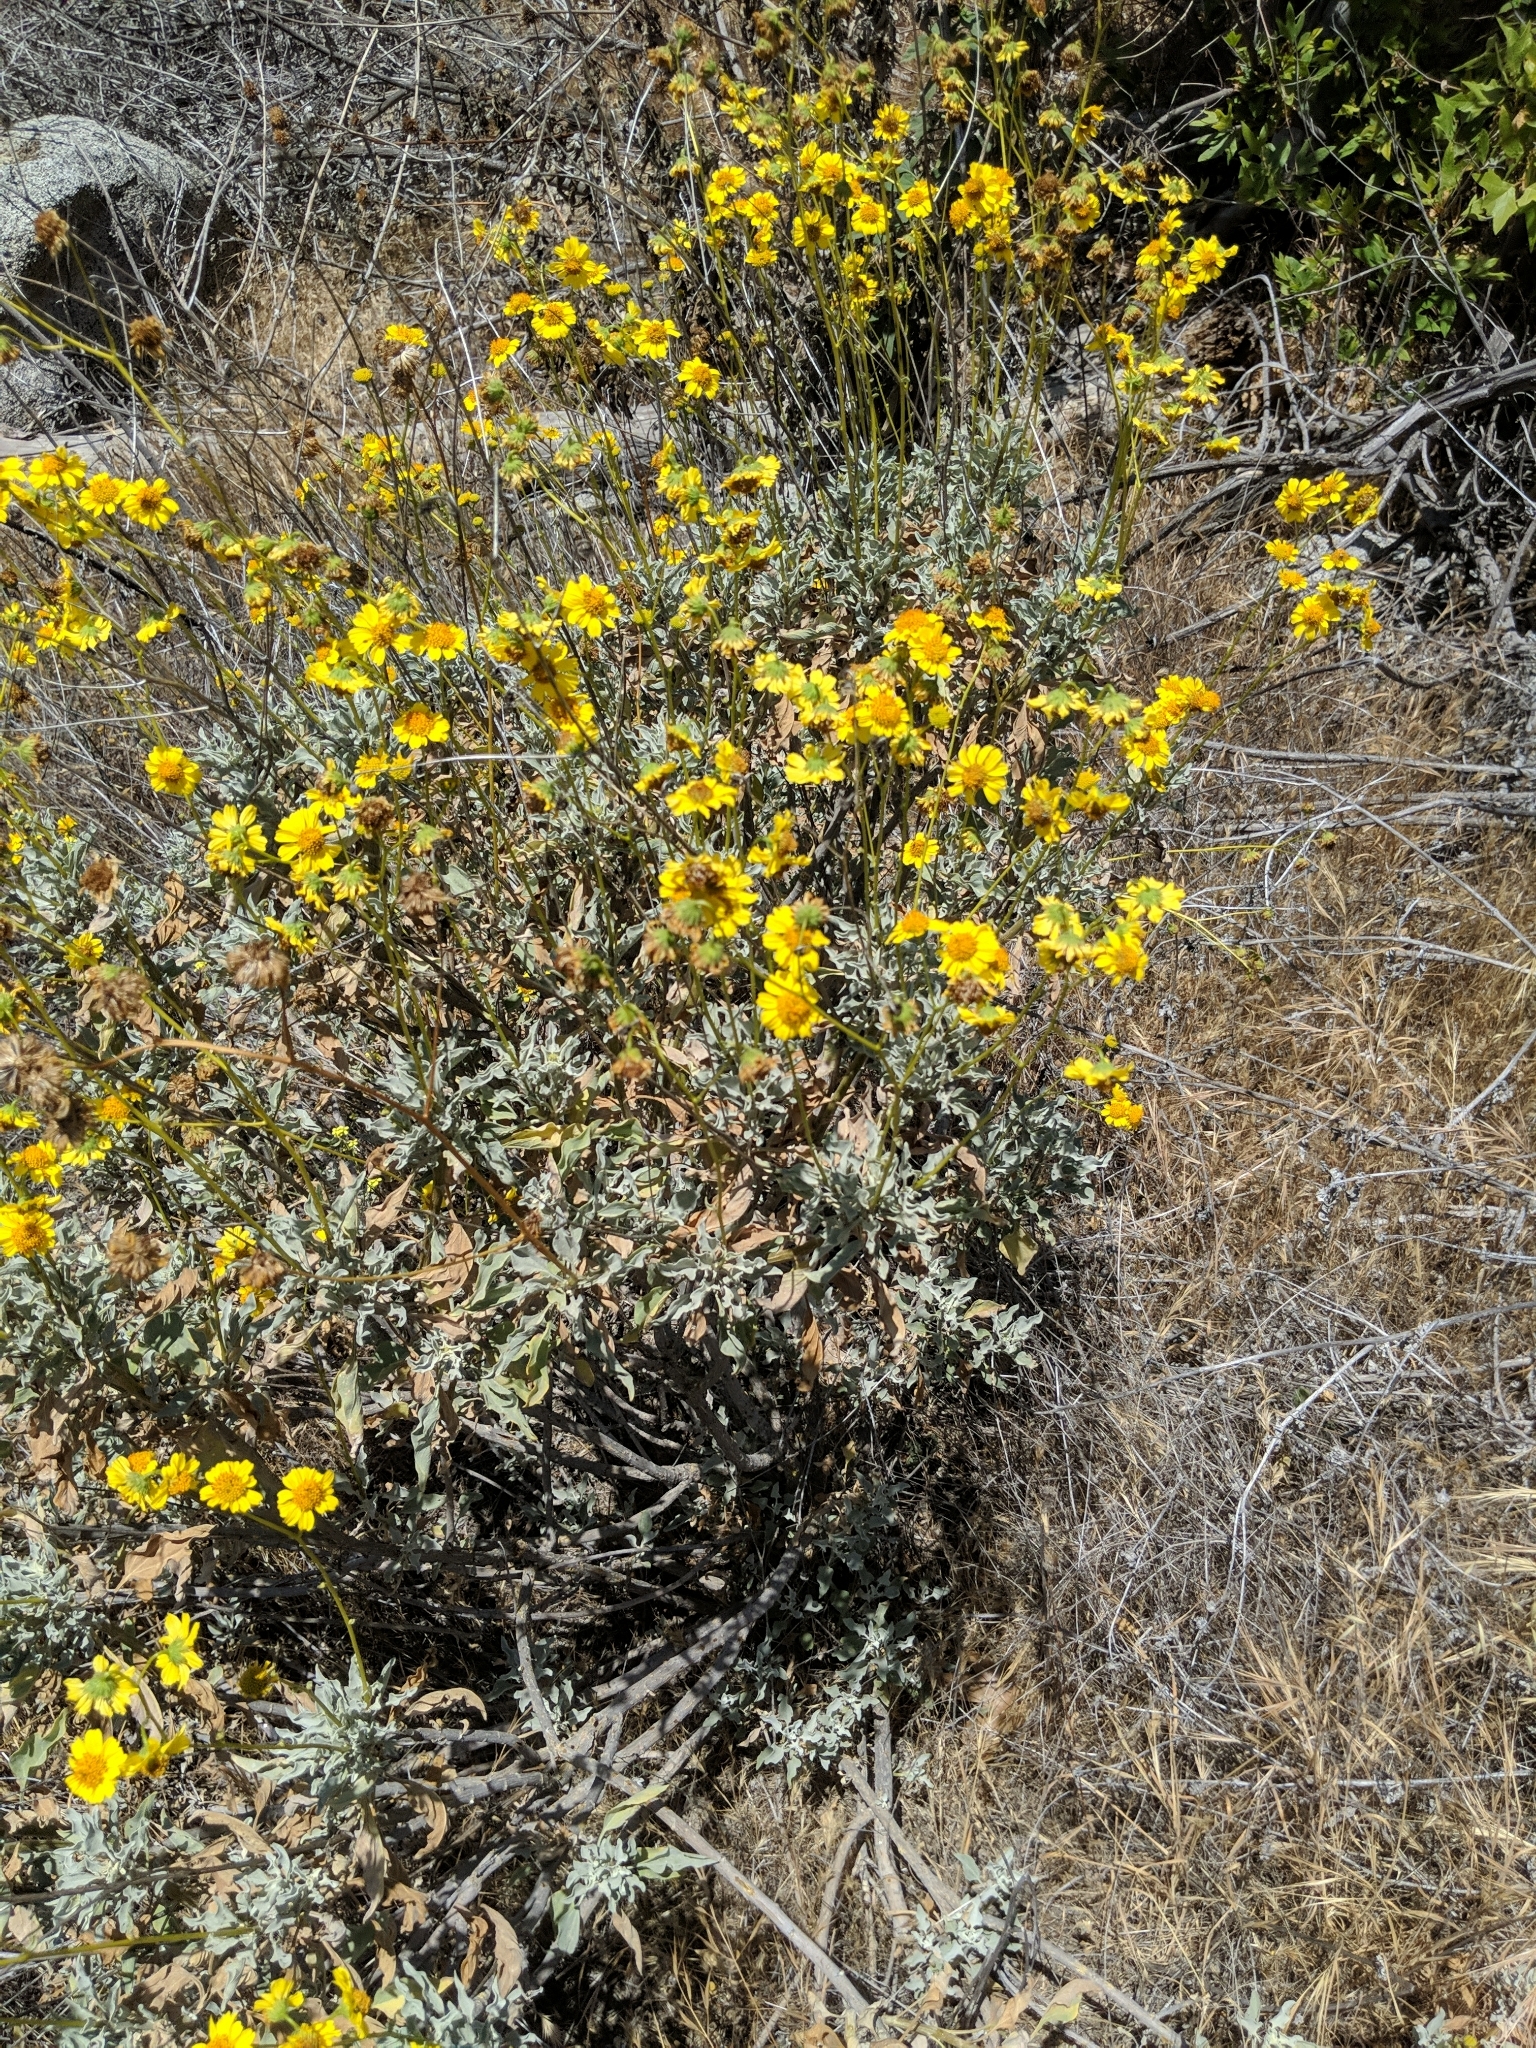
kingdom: Plantae
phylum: Tracheophyta
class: Magnoliopsida
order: Asterales
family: Asteraceae
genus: Encelia
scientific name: Encelia farinosa
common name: Brittlebush
